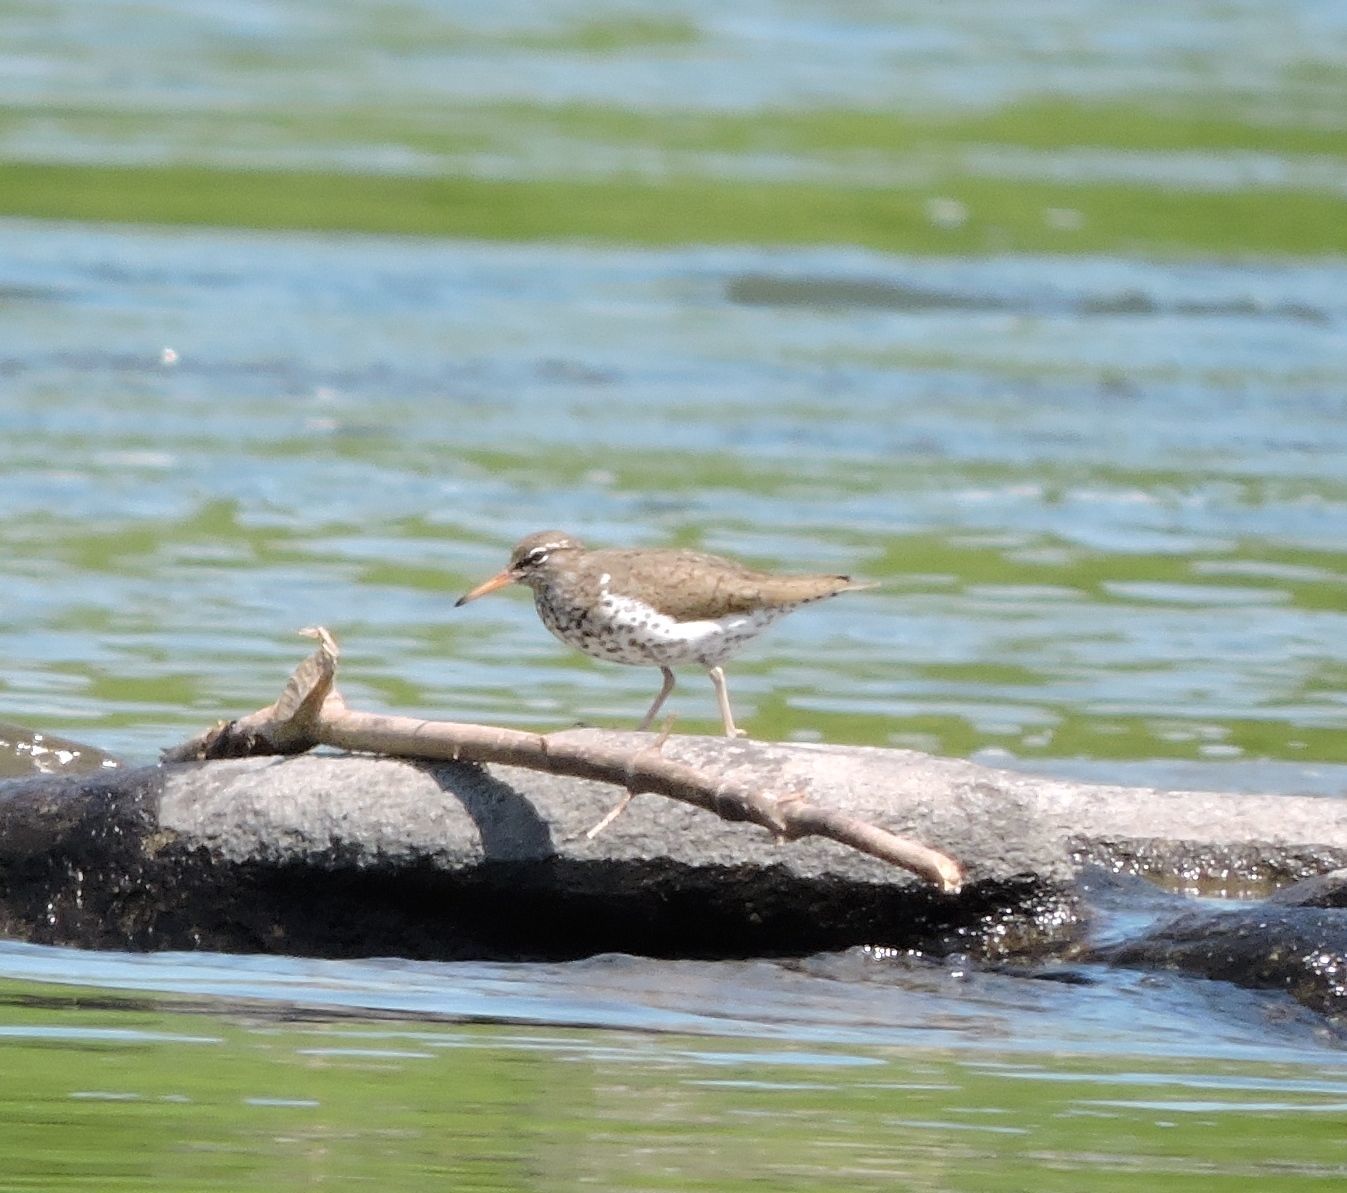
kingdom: Animalia
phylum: Chordata
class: Aves
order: Charadriiformes
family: Scolopacidae
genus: Actitis
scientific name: Actitis macularius
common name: Spotted sandpiper
